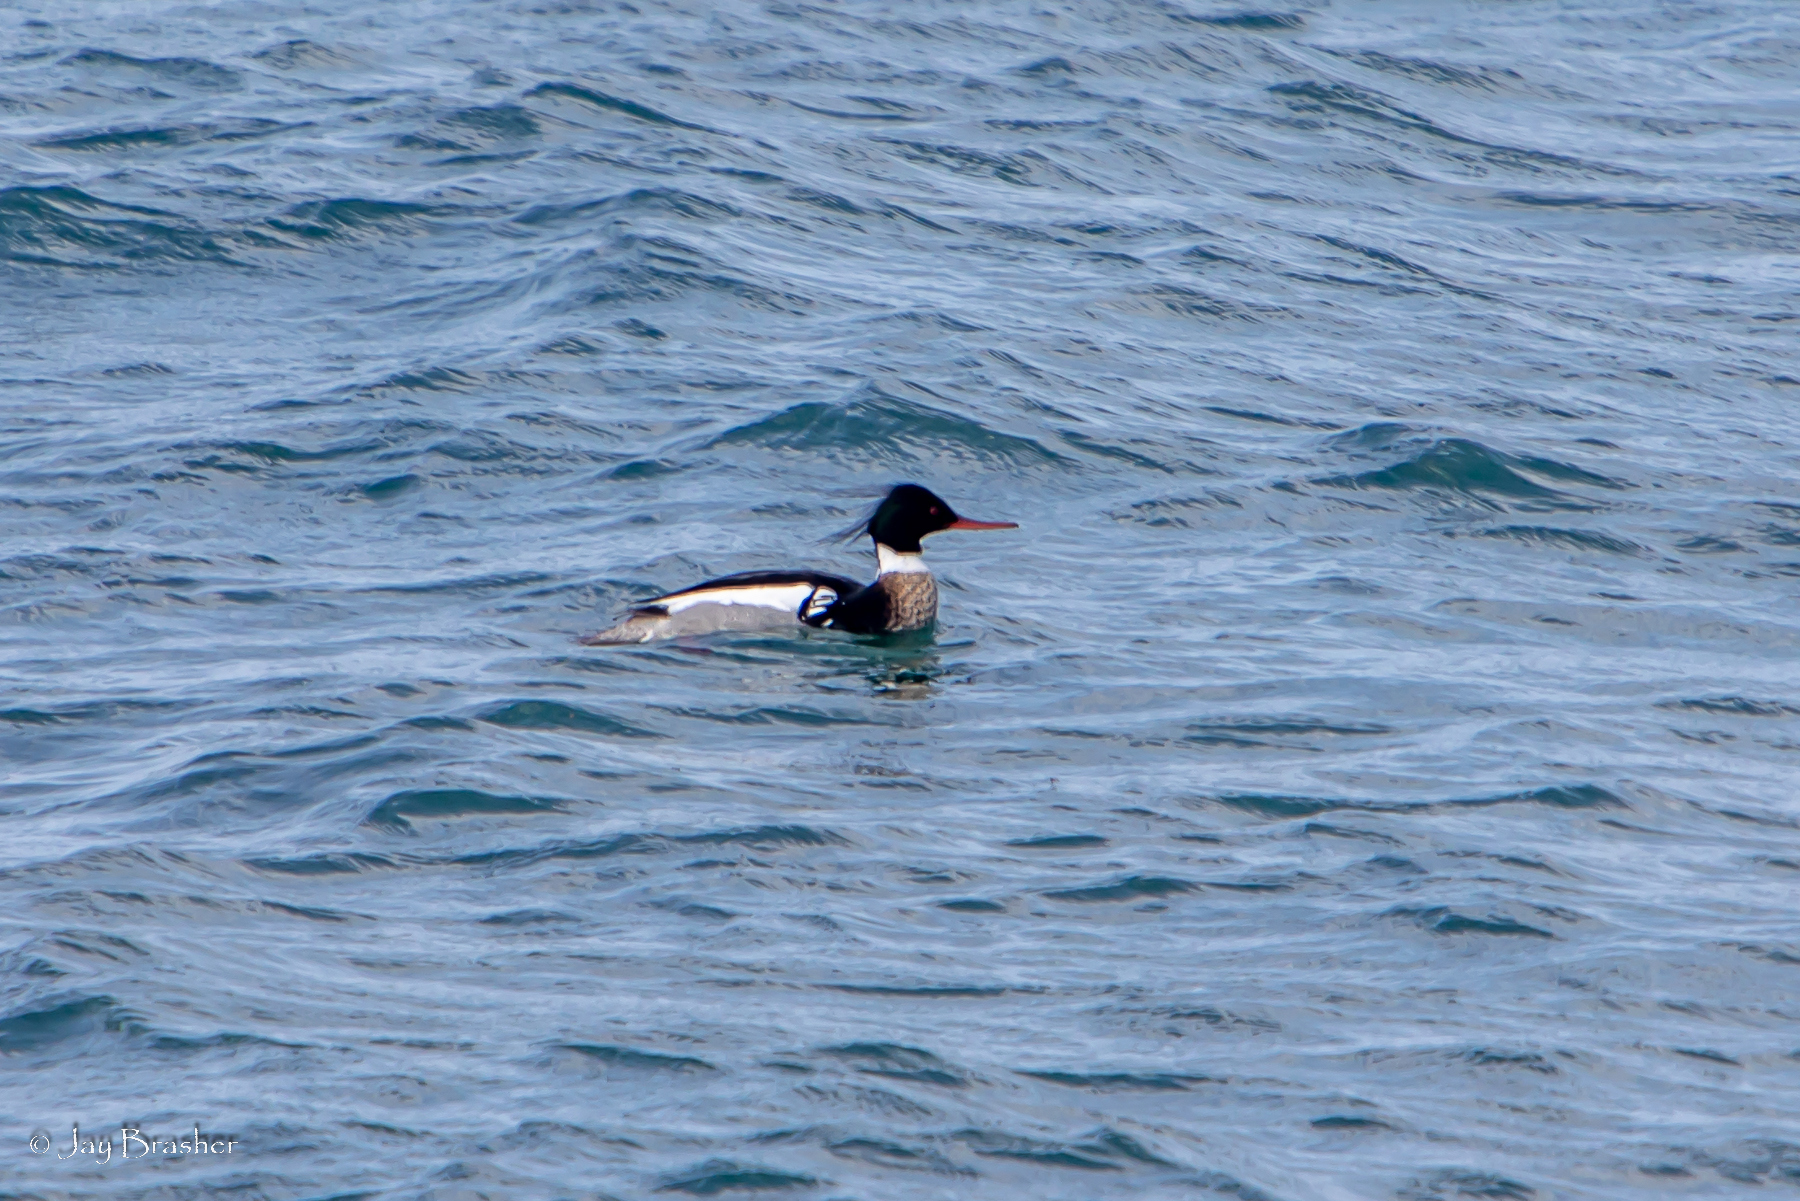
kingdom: Animalia
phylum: Chordata
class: Aves
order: Anseriformes
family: Anatidae
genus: Mergus
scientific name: Mergus serrator
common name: Red-breasted merganser
